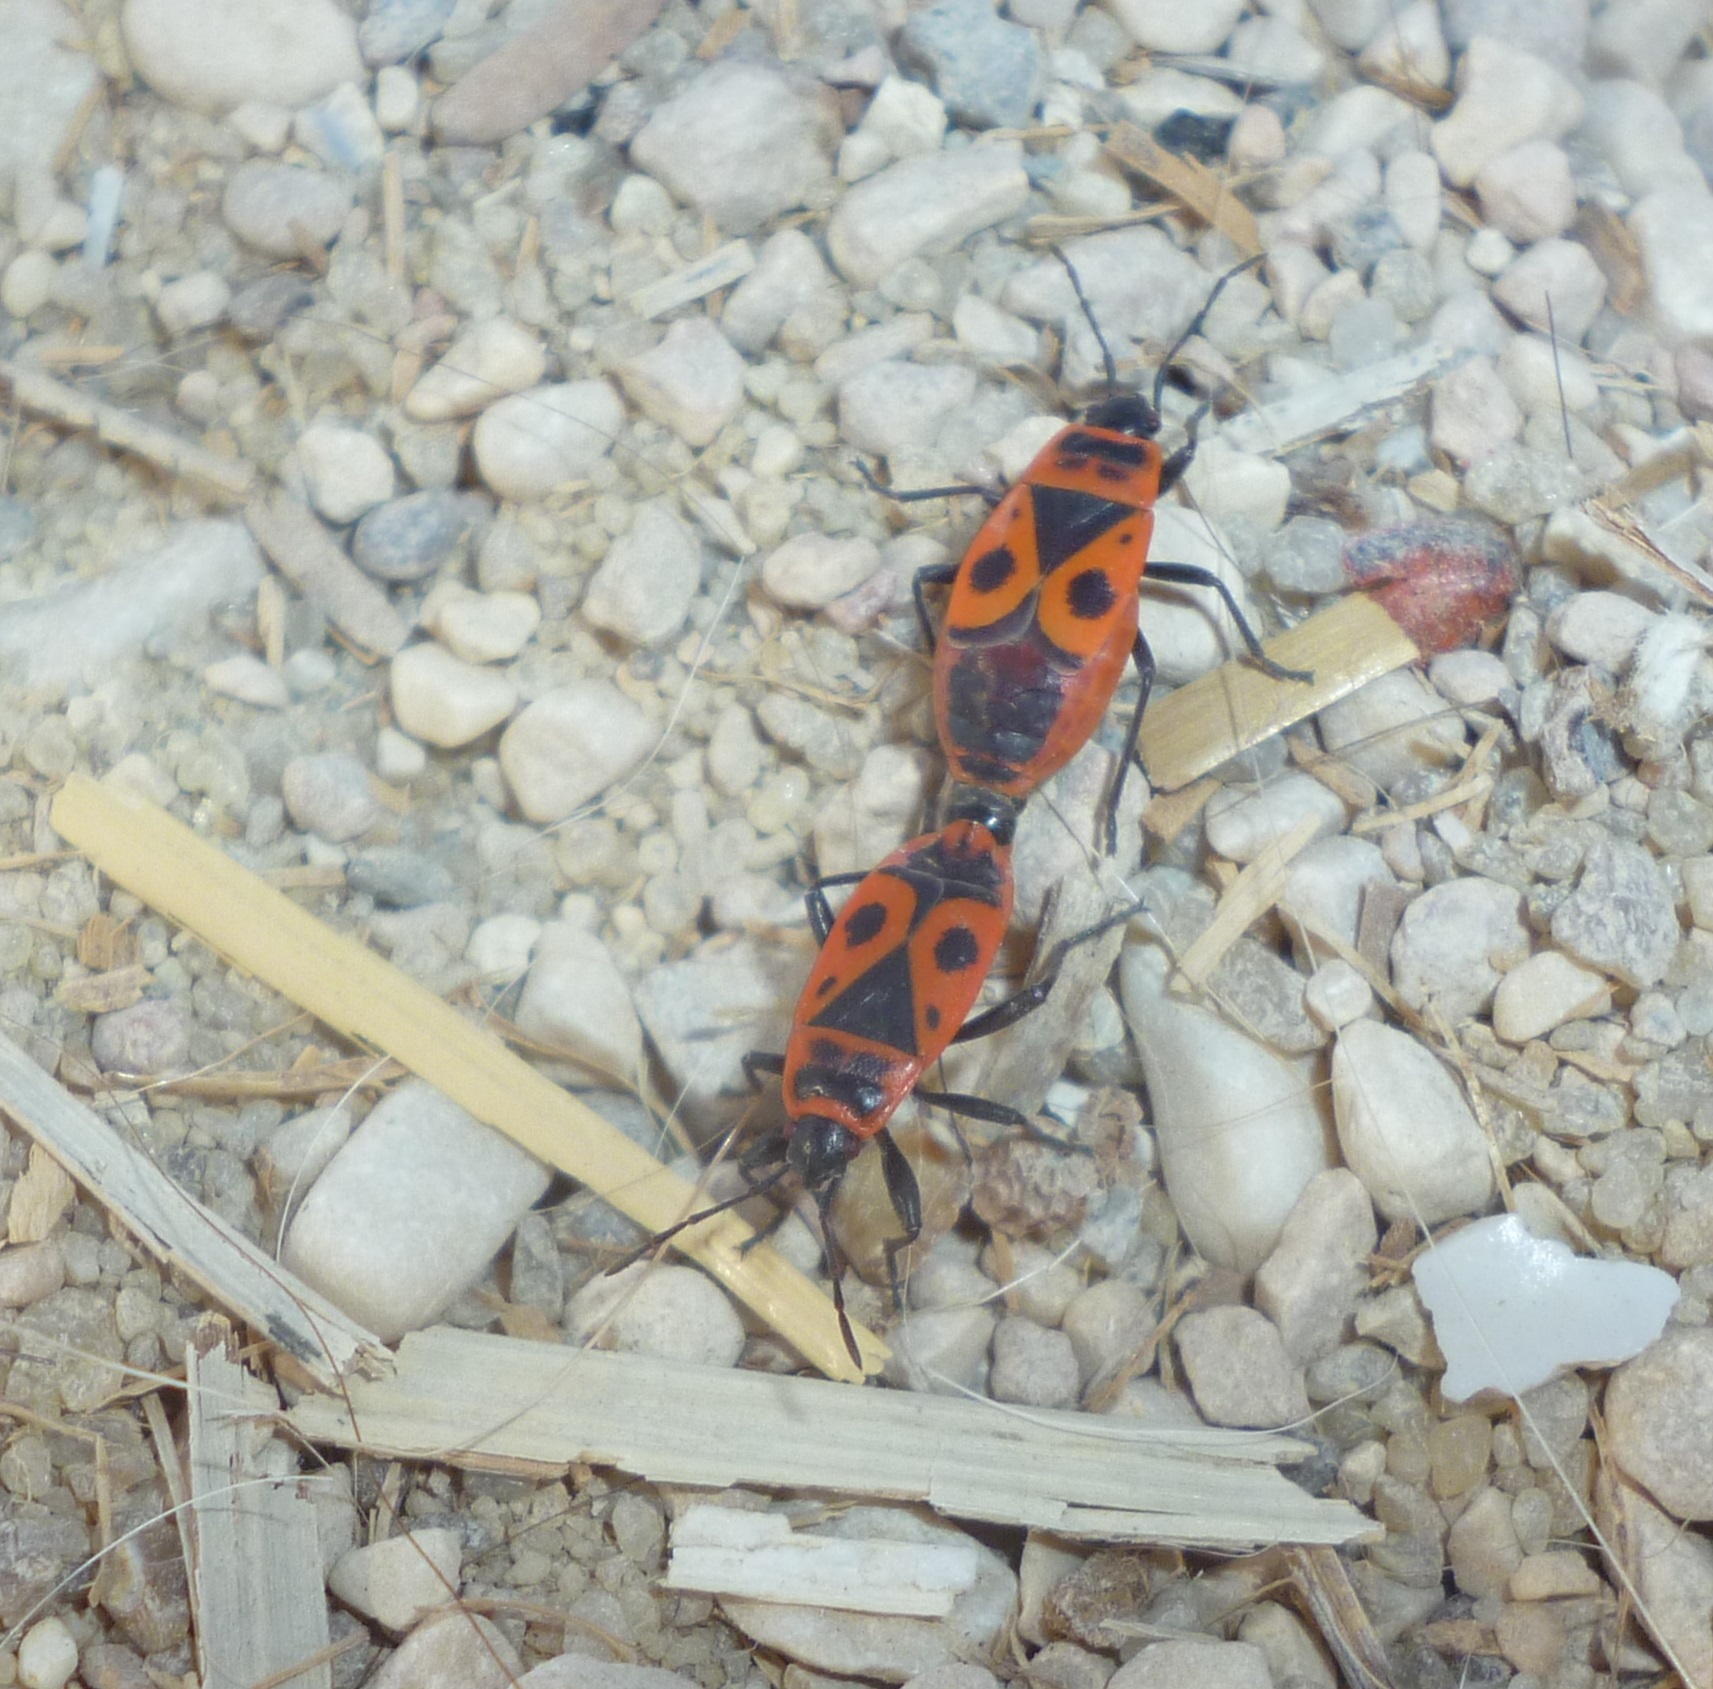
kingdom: Animalia
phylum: Arthropoda
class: Insecta
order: Hemiptera
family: Pyrrhocoridae
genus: Pyrrhocoris
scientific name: Pyrrhocoris apterus
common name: Firebug
